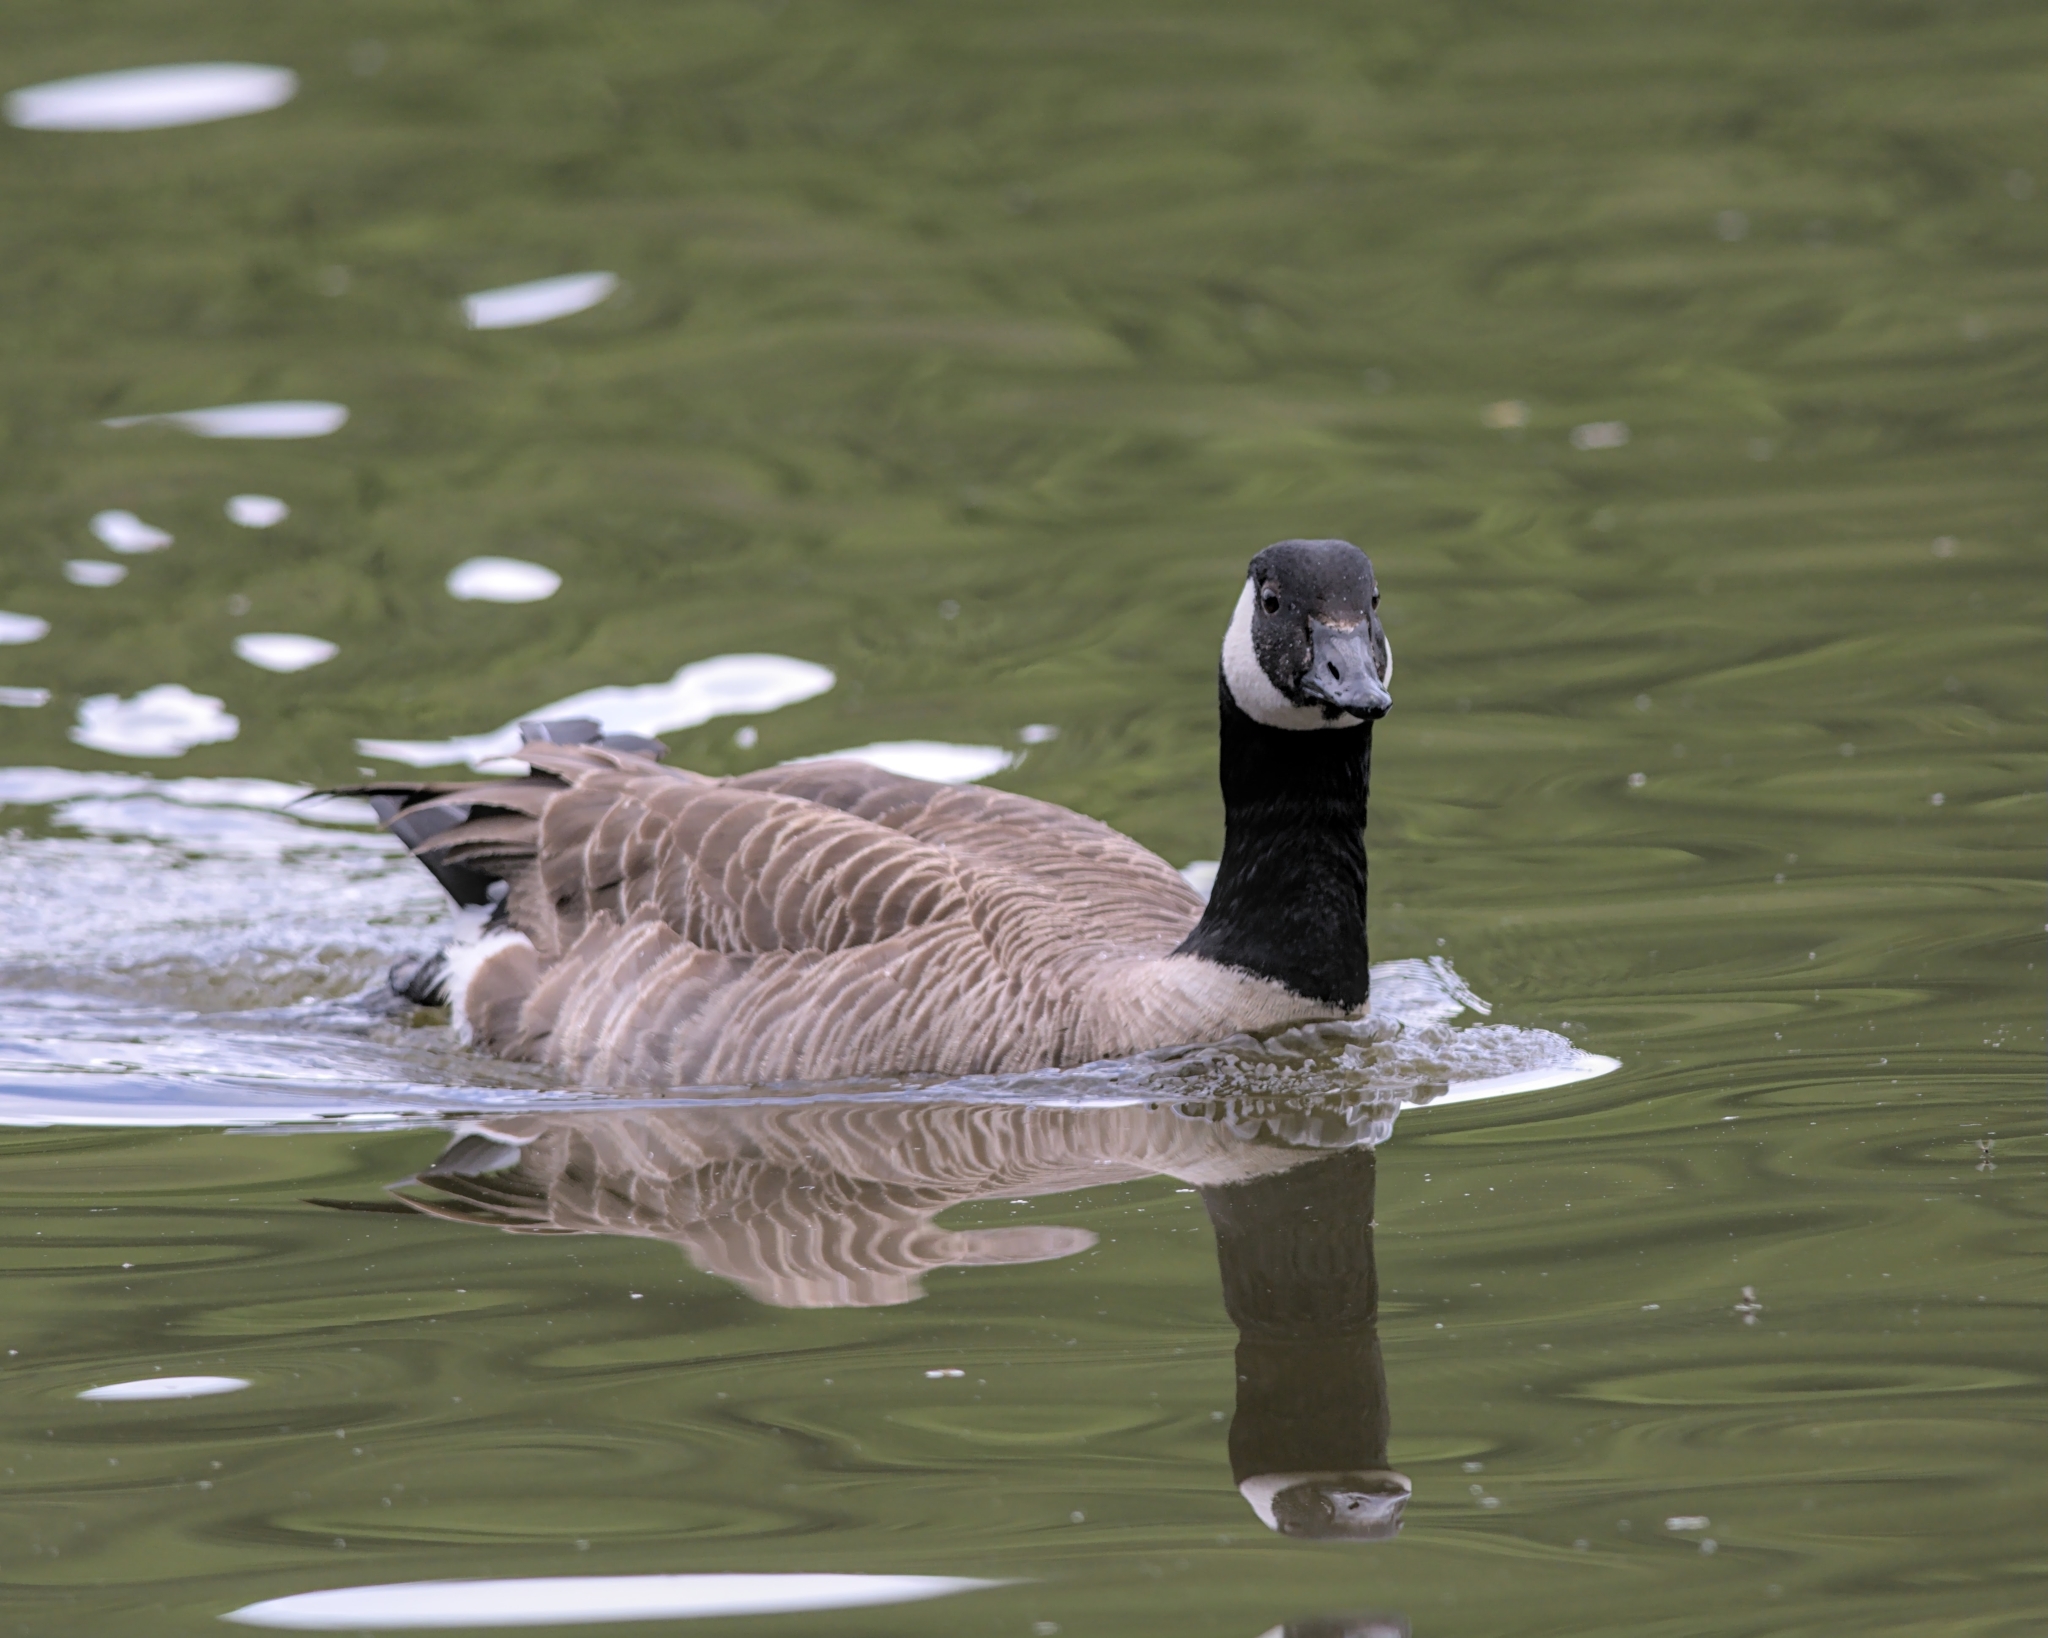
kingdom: Animalia
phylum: Chordata
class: Aves
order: Anseriformes
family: Anatidae
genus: Branta
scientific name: Branta canadensis
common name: Canada goose
